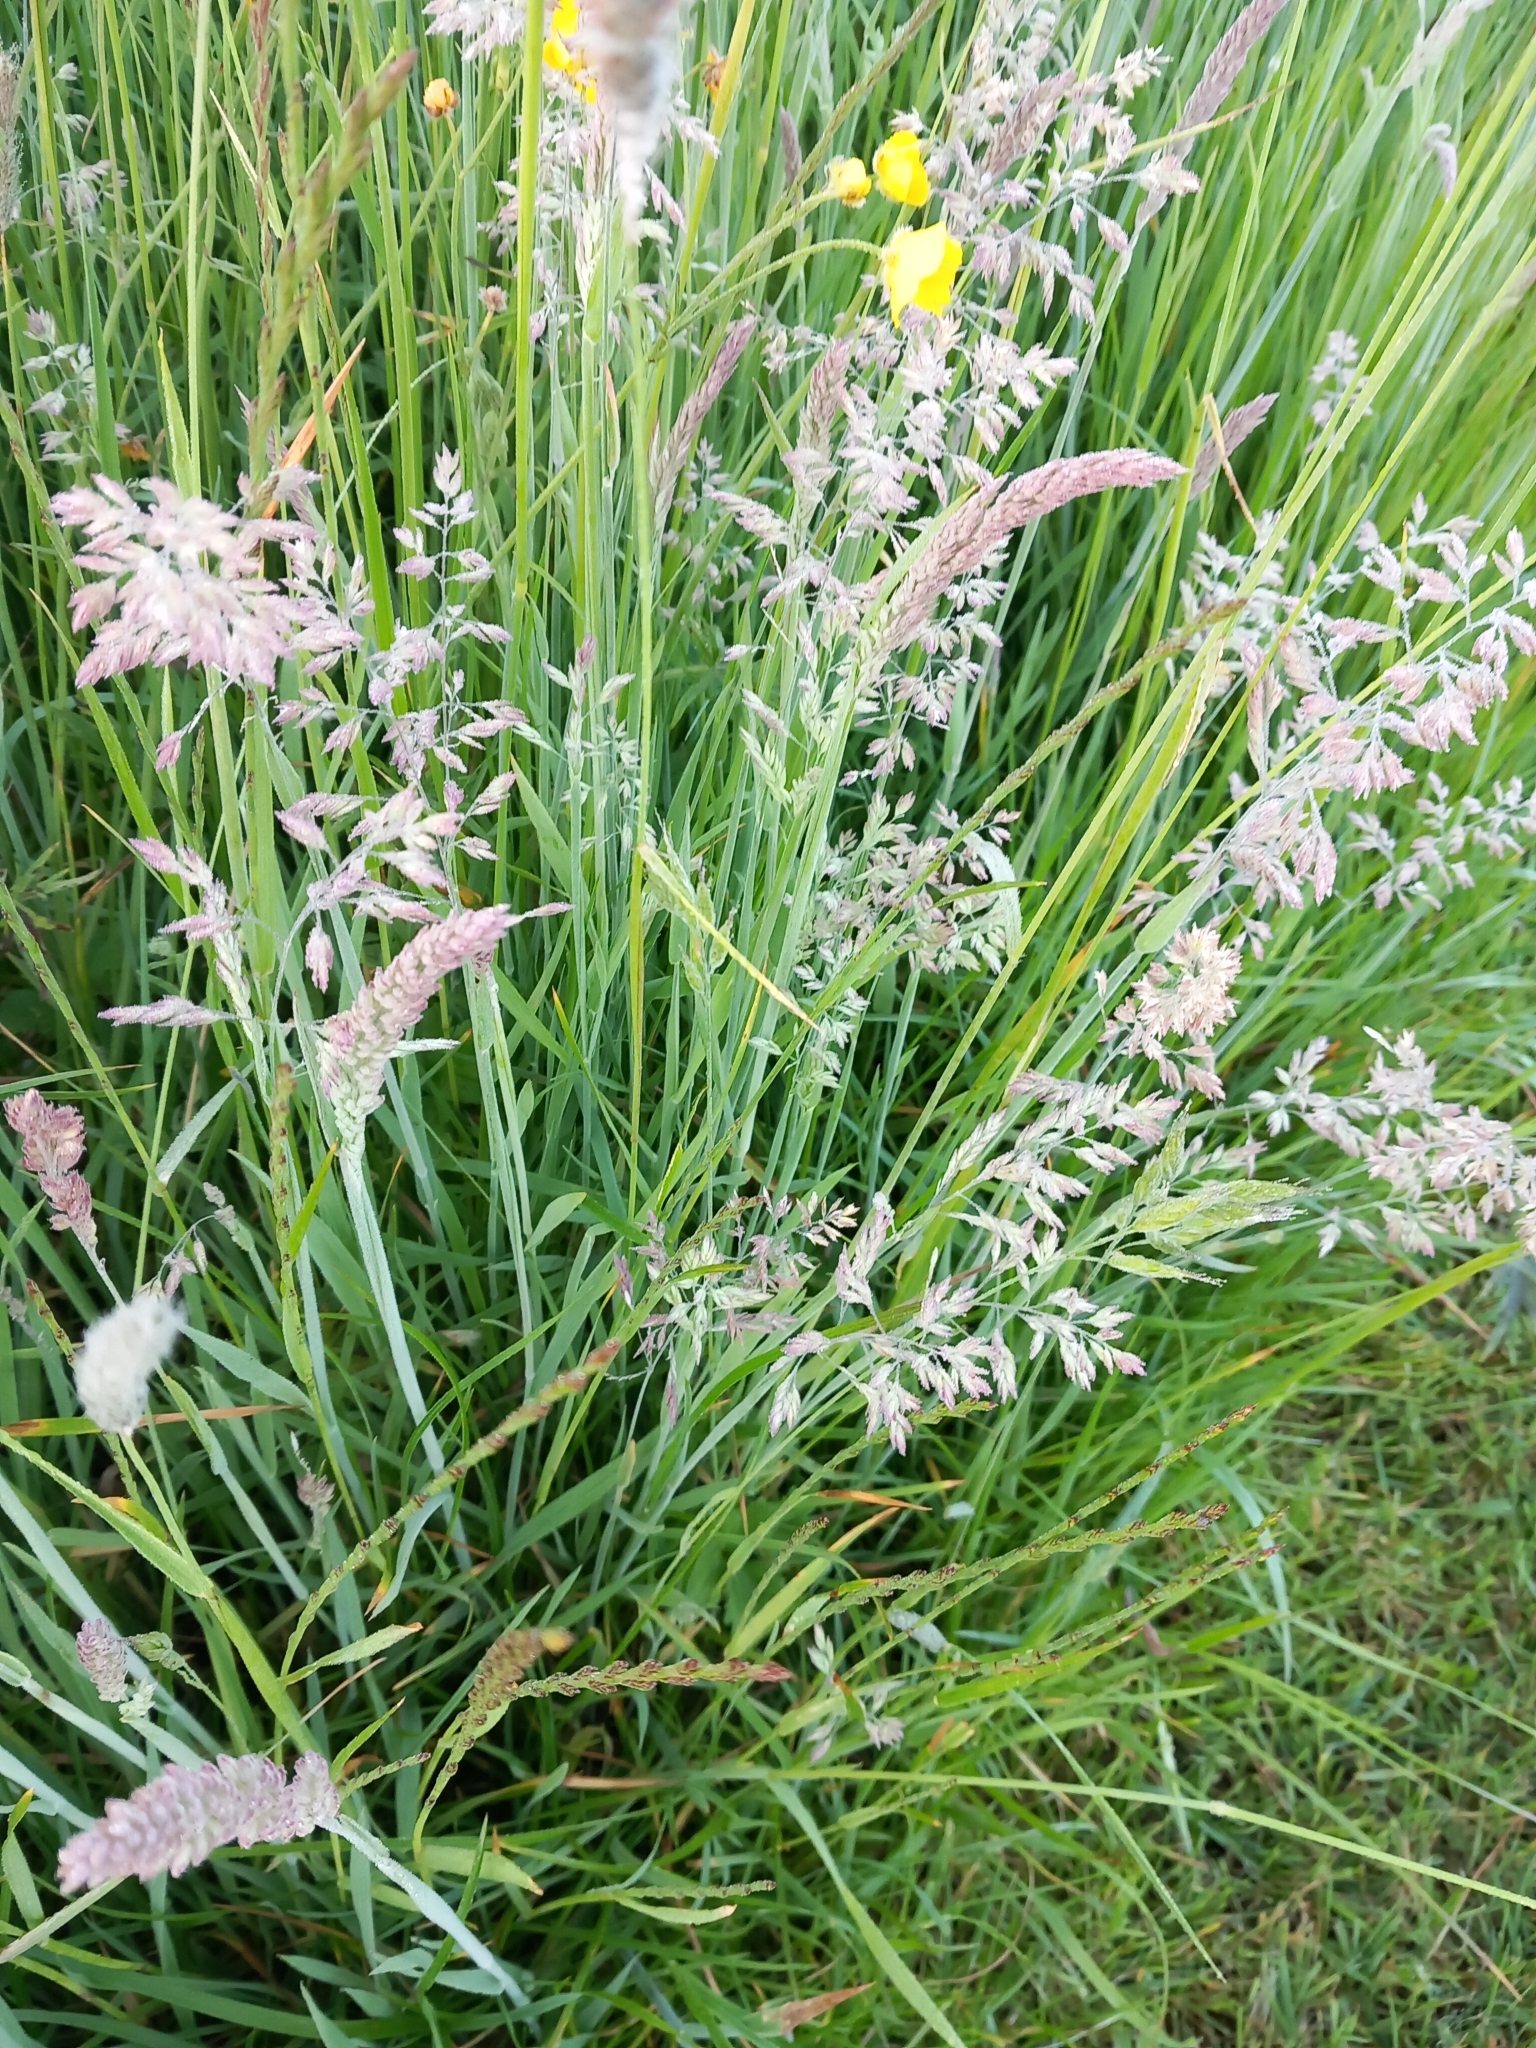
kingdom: Plantae
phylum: Tracheophyta
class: Liliopsida
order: Poales
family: Poaceae
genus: Holcus
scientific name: Holcus lanatus
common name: Yorkshire-fog
